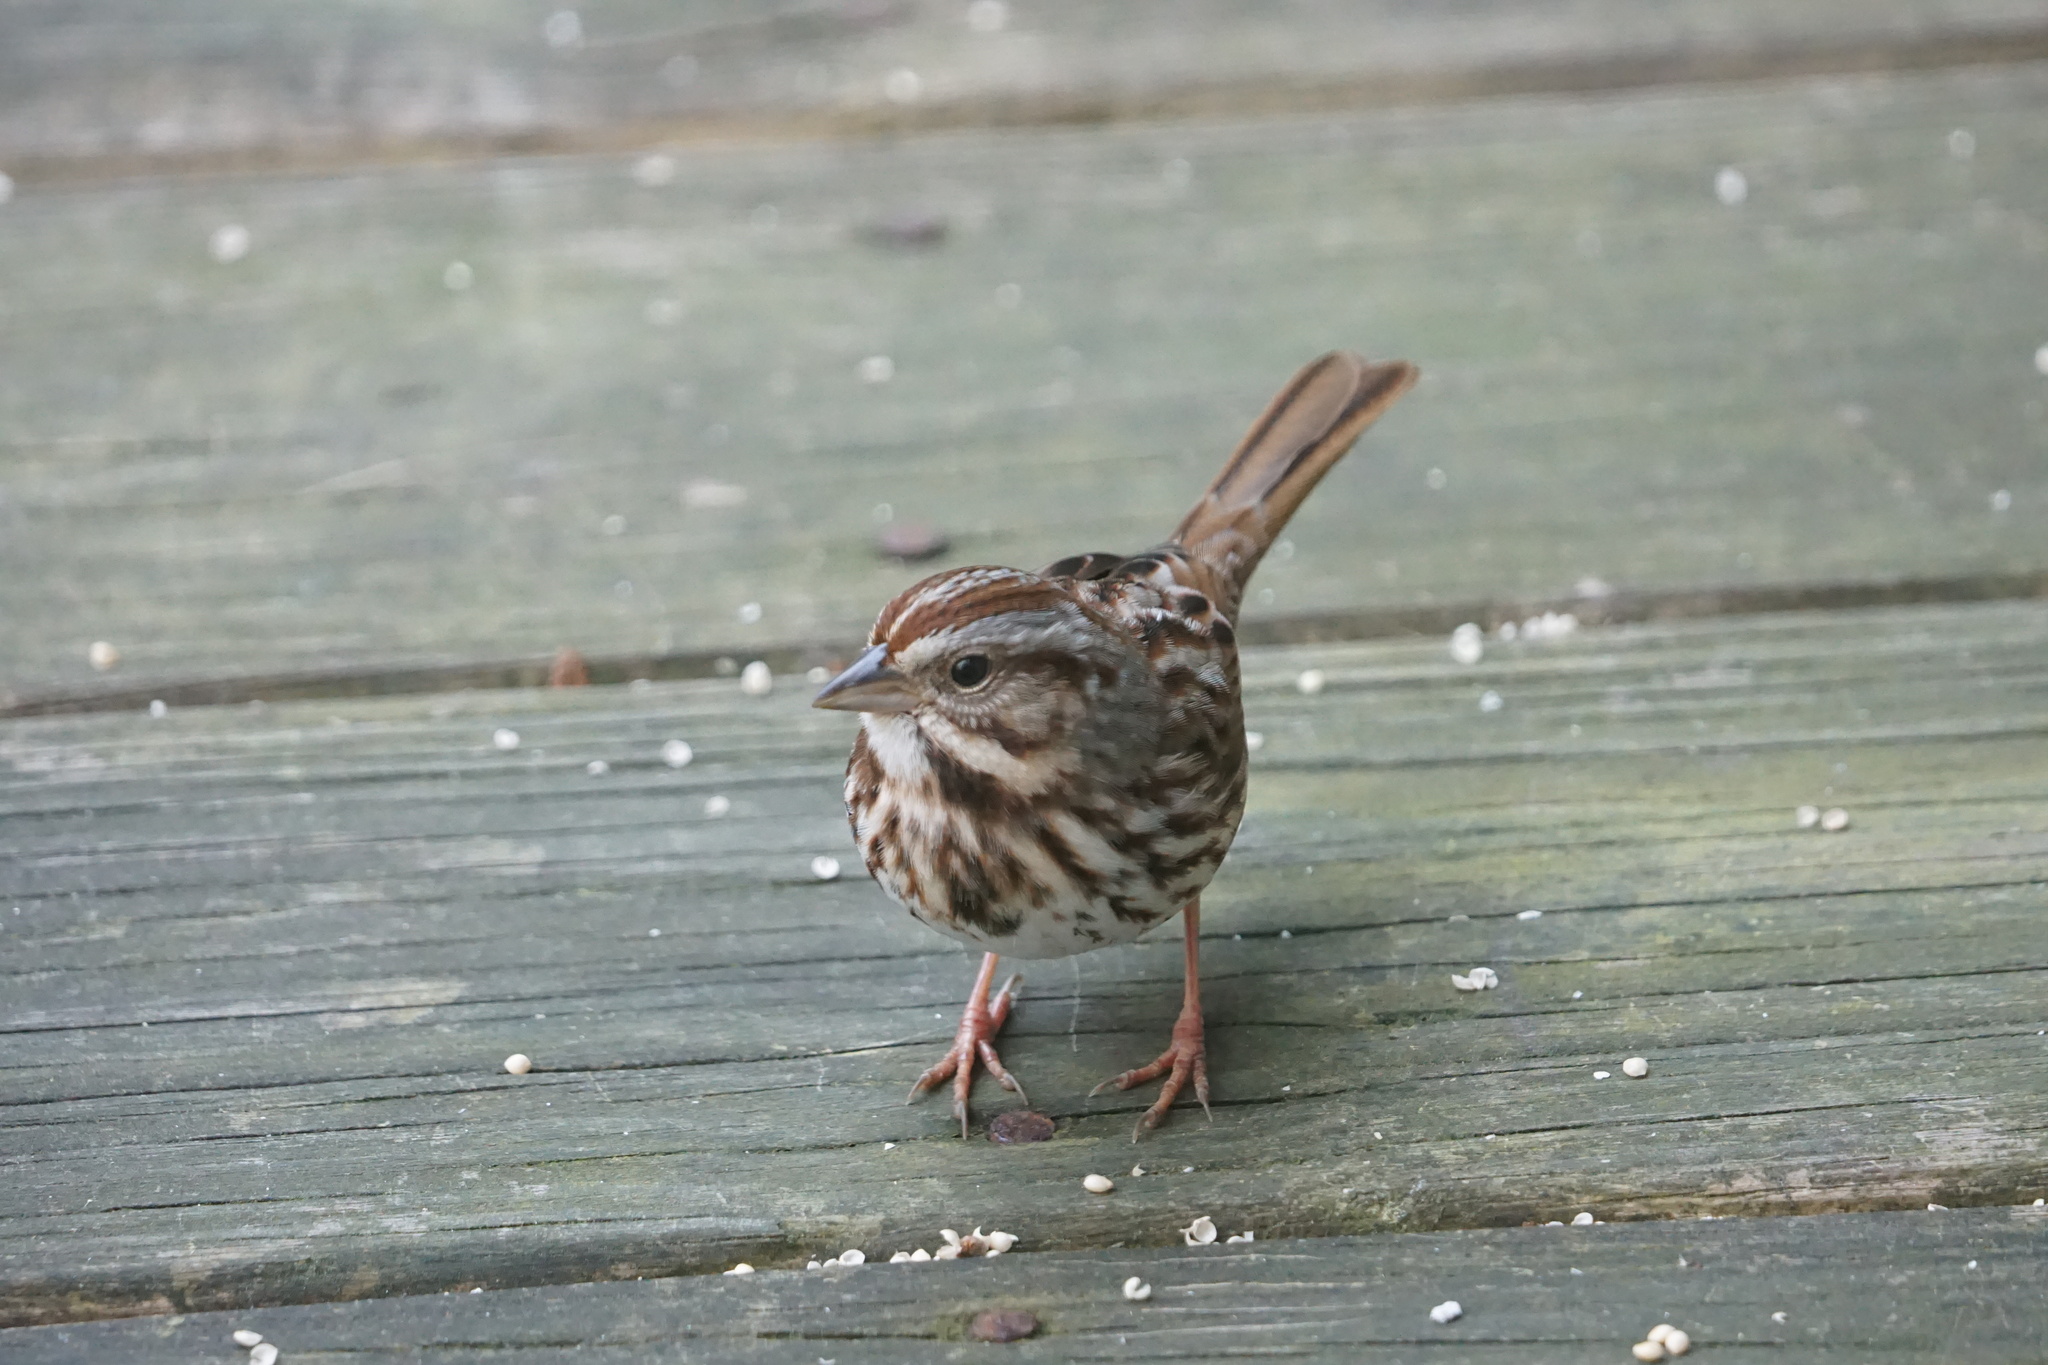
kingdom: Animalia
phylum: Chordata
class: Aves
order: Passeriformes
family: Passerellidae
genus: Melospiza
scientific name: Melospiza melodia
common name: Song sparrow
